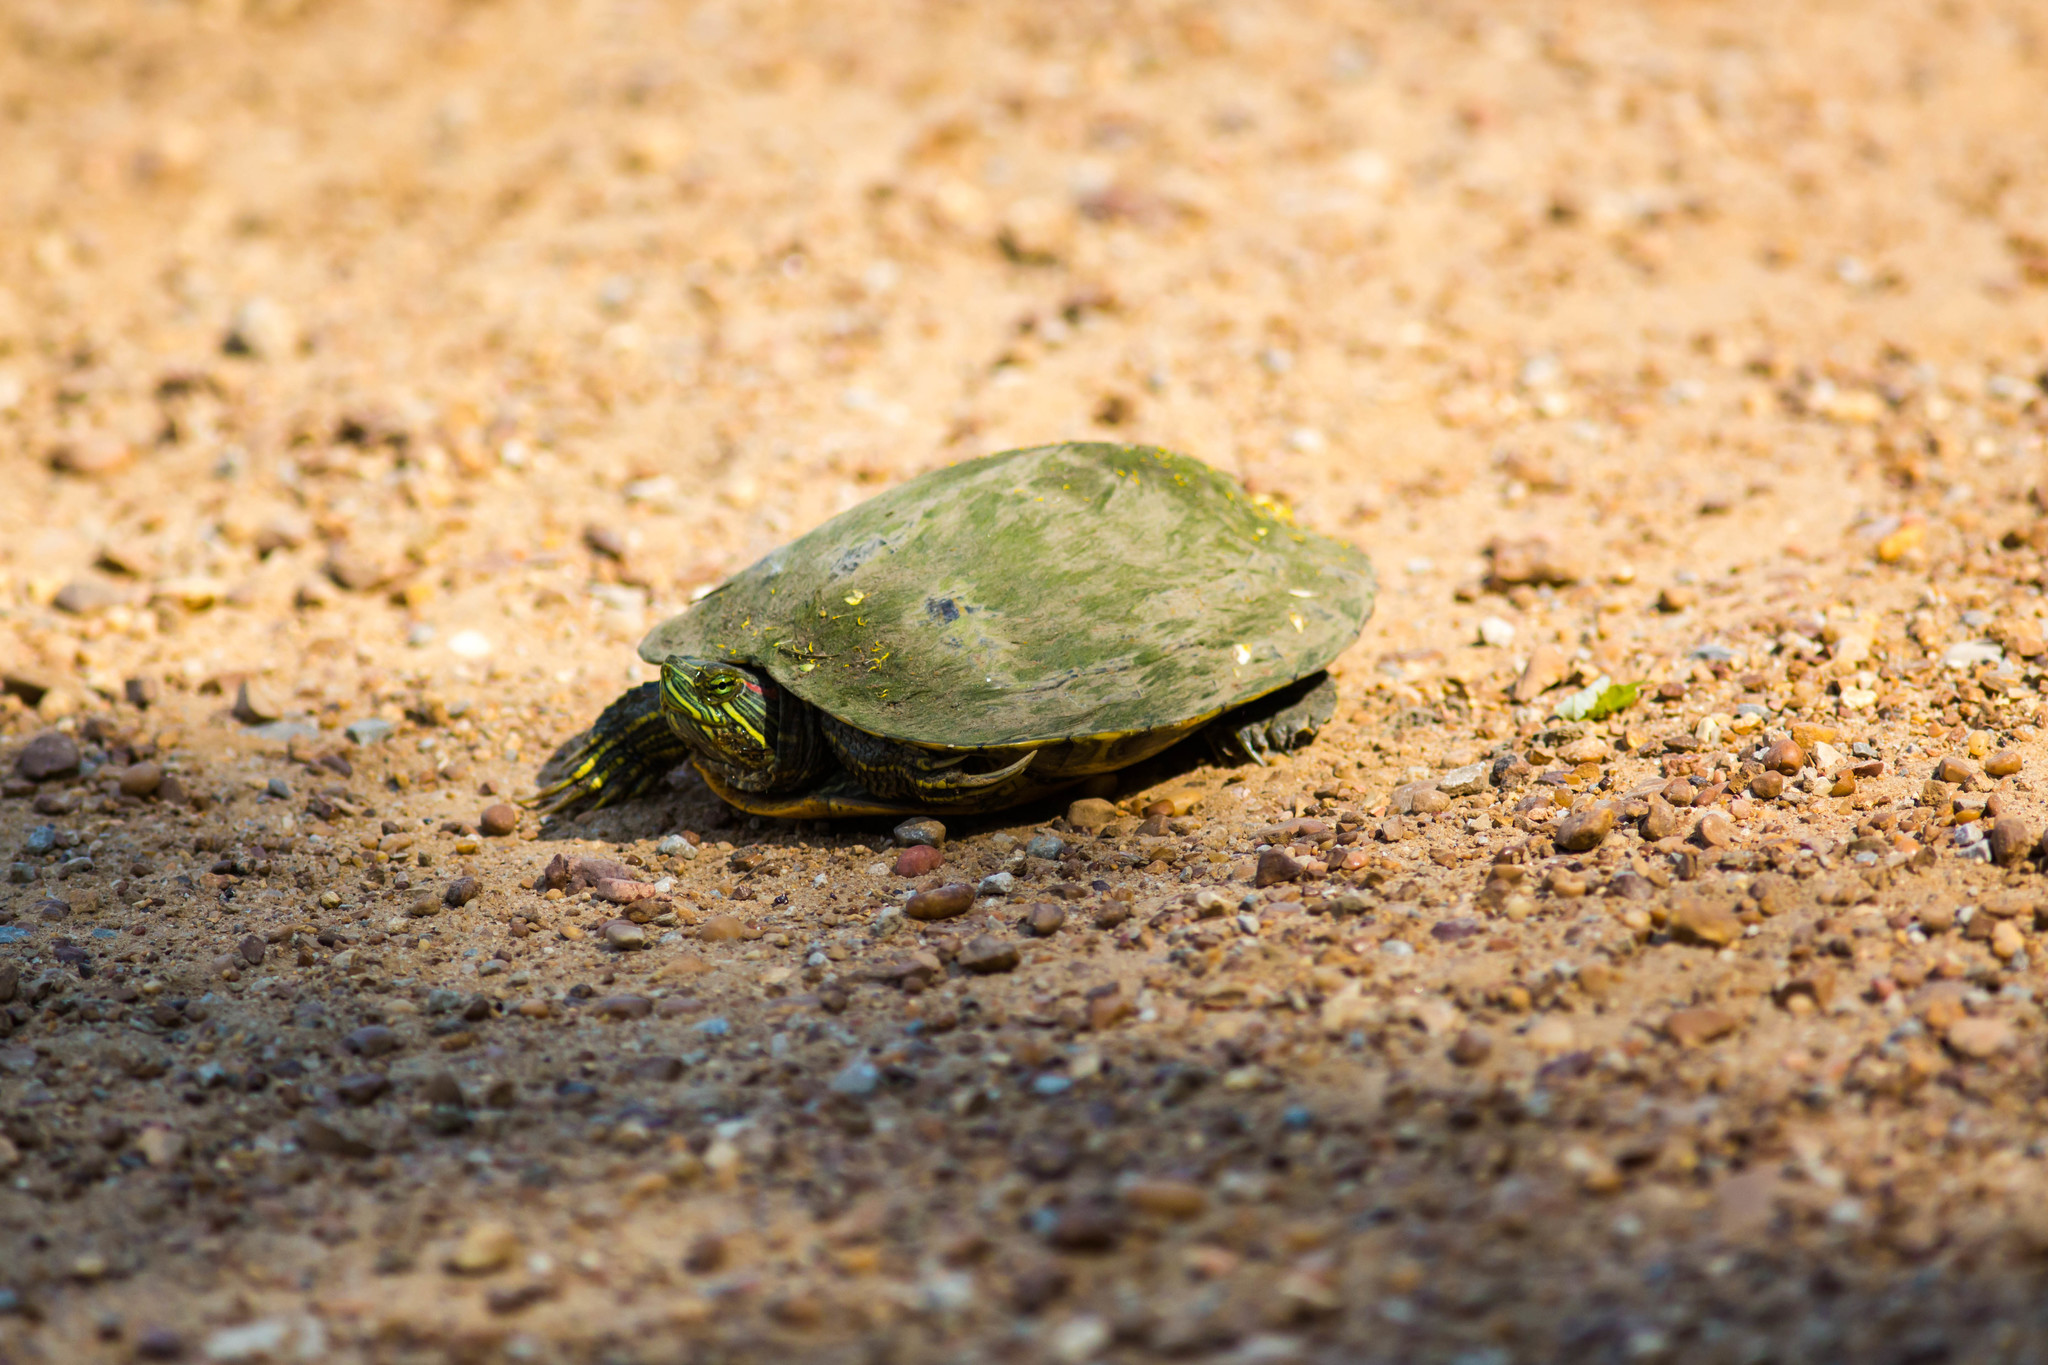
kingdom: Animalia
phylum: Chordata
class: Testudines
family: Emydidae
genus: Trachemys
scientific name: Trachemys scripta
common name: Slider
